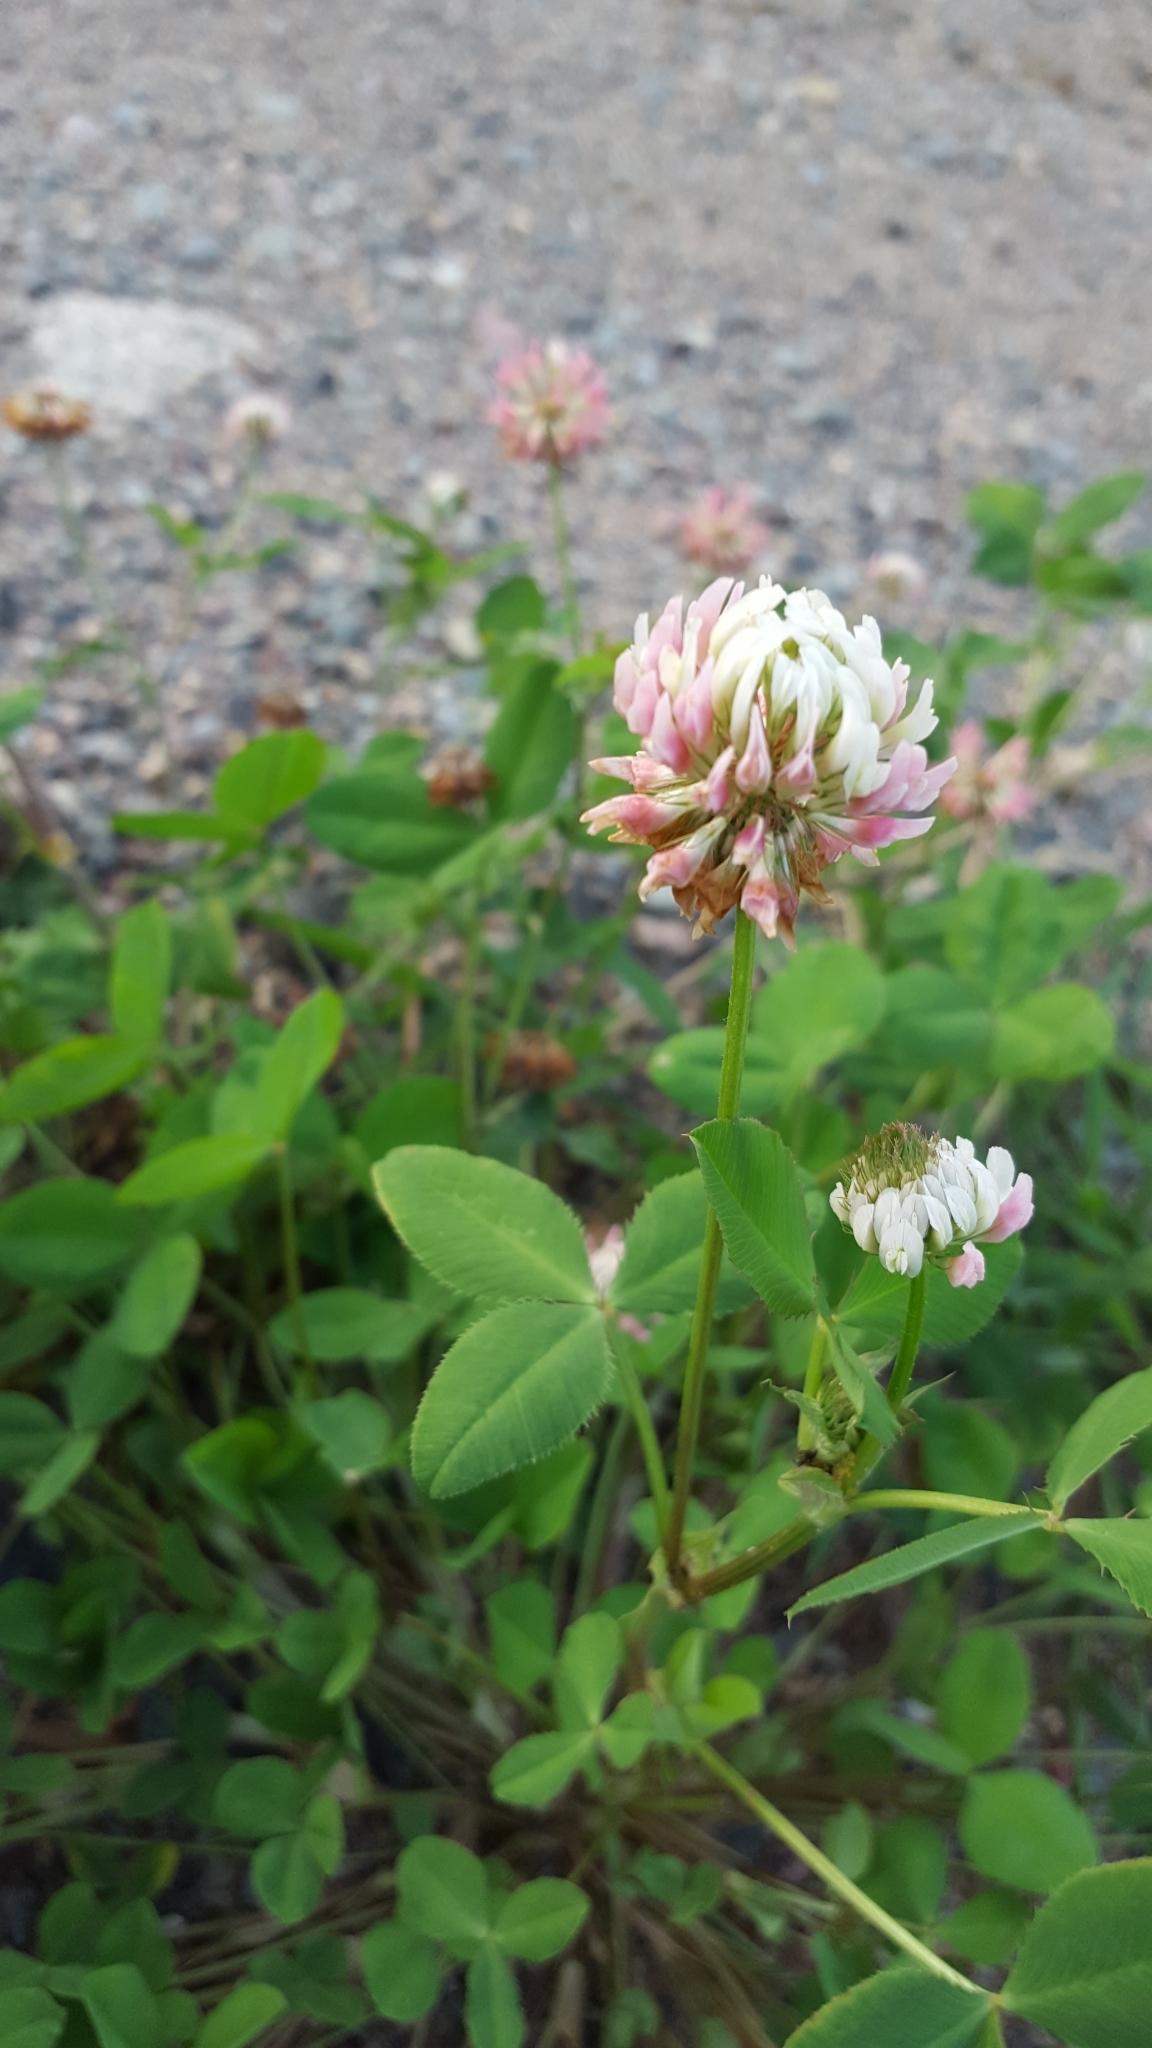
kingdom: Plantae
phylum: Tracheophyta
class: Magnoliopsida
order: Fabales
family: Fabaceae
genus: Trifolium
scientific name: Trifolium hybridum
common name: Alsike clover
